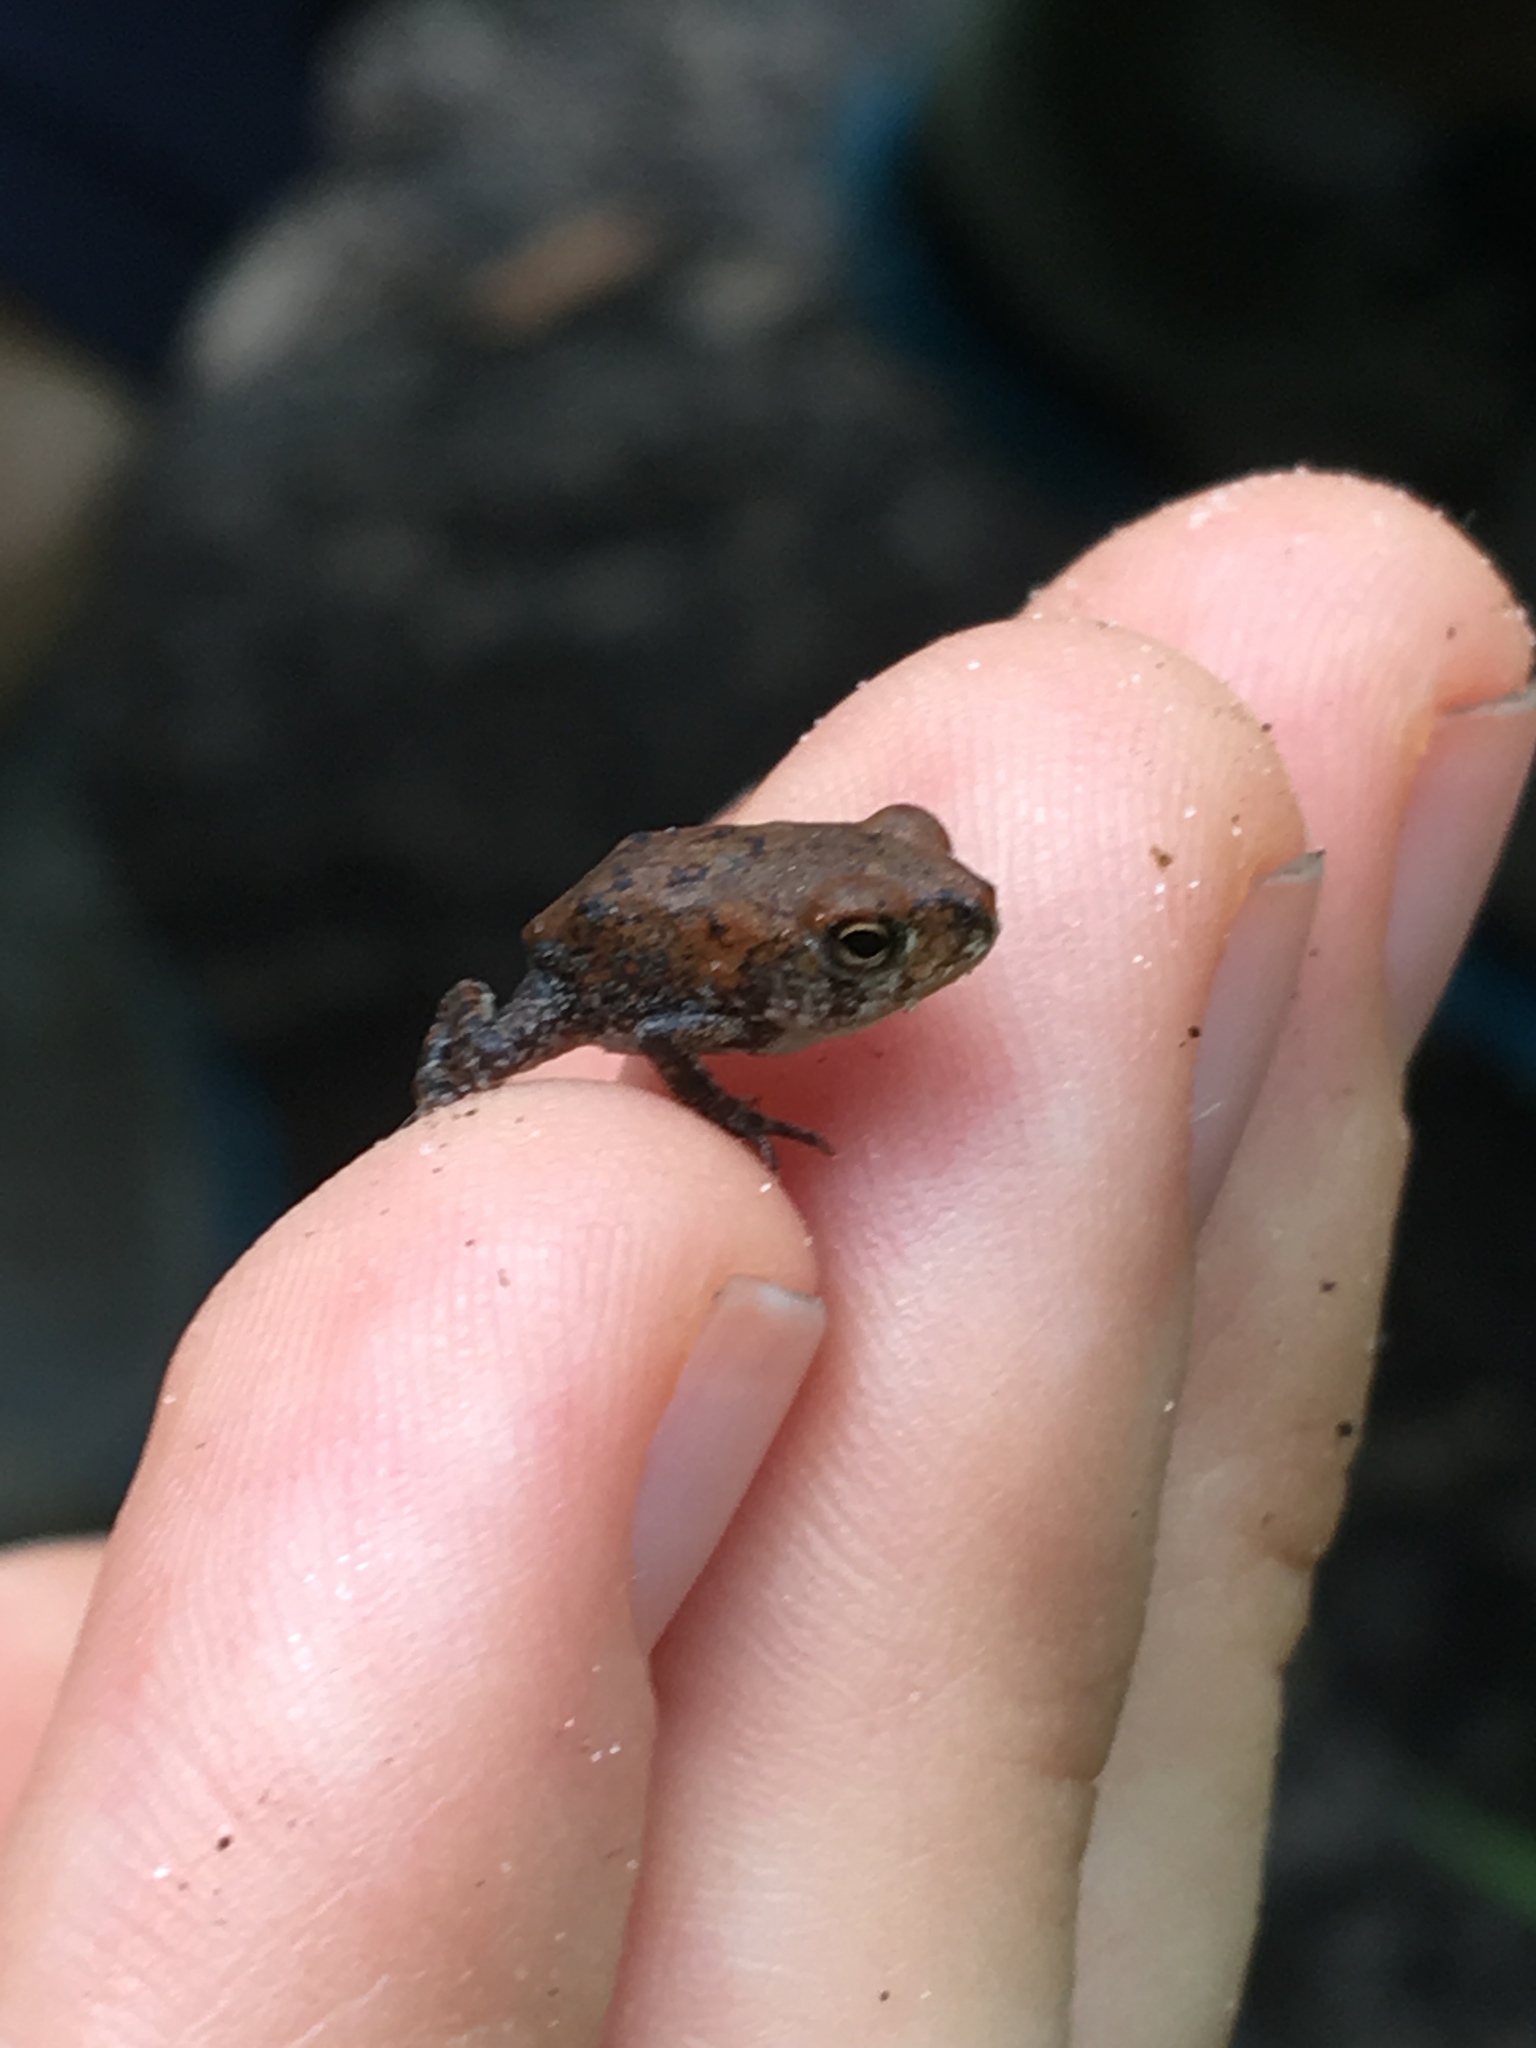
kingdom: Animalia
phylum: Chordata
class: Amphibia
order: Anura
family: Bufonidae
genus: Anaxyrus
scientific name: Anaxyrus terrestris
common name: Southern toad
